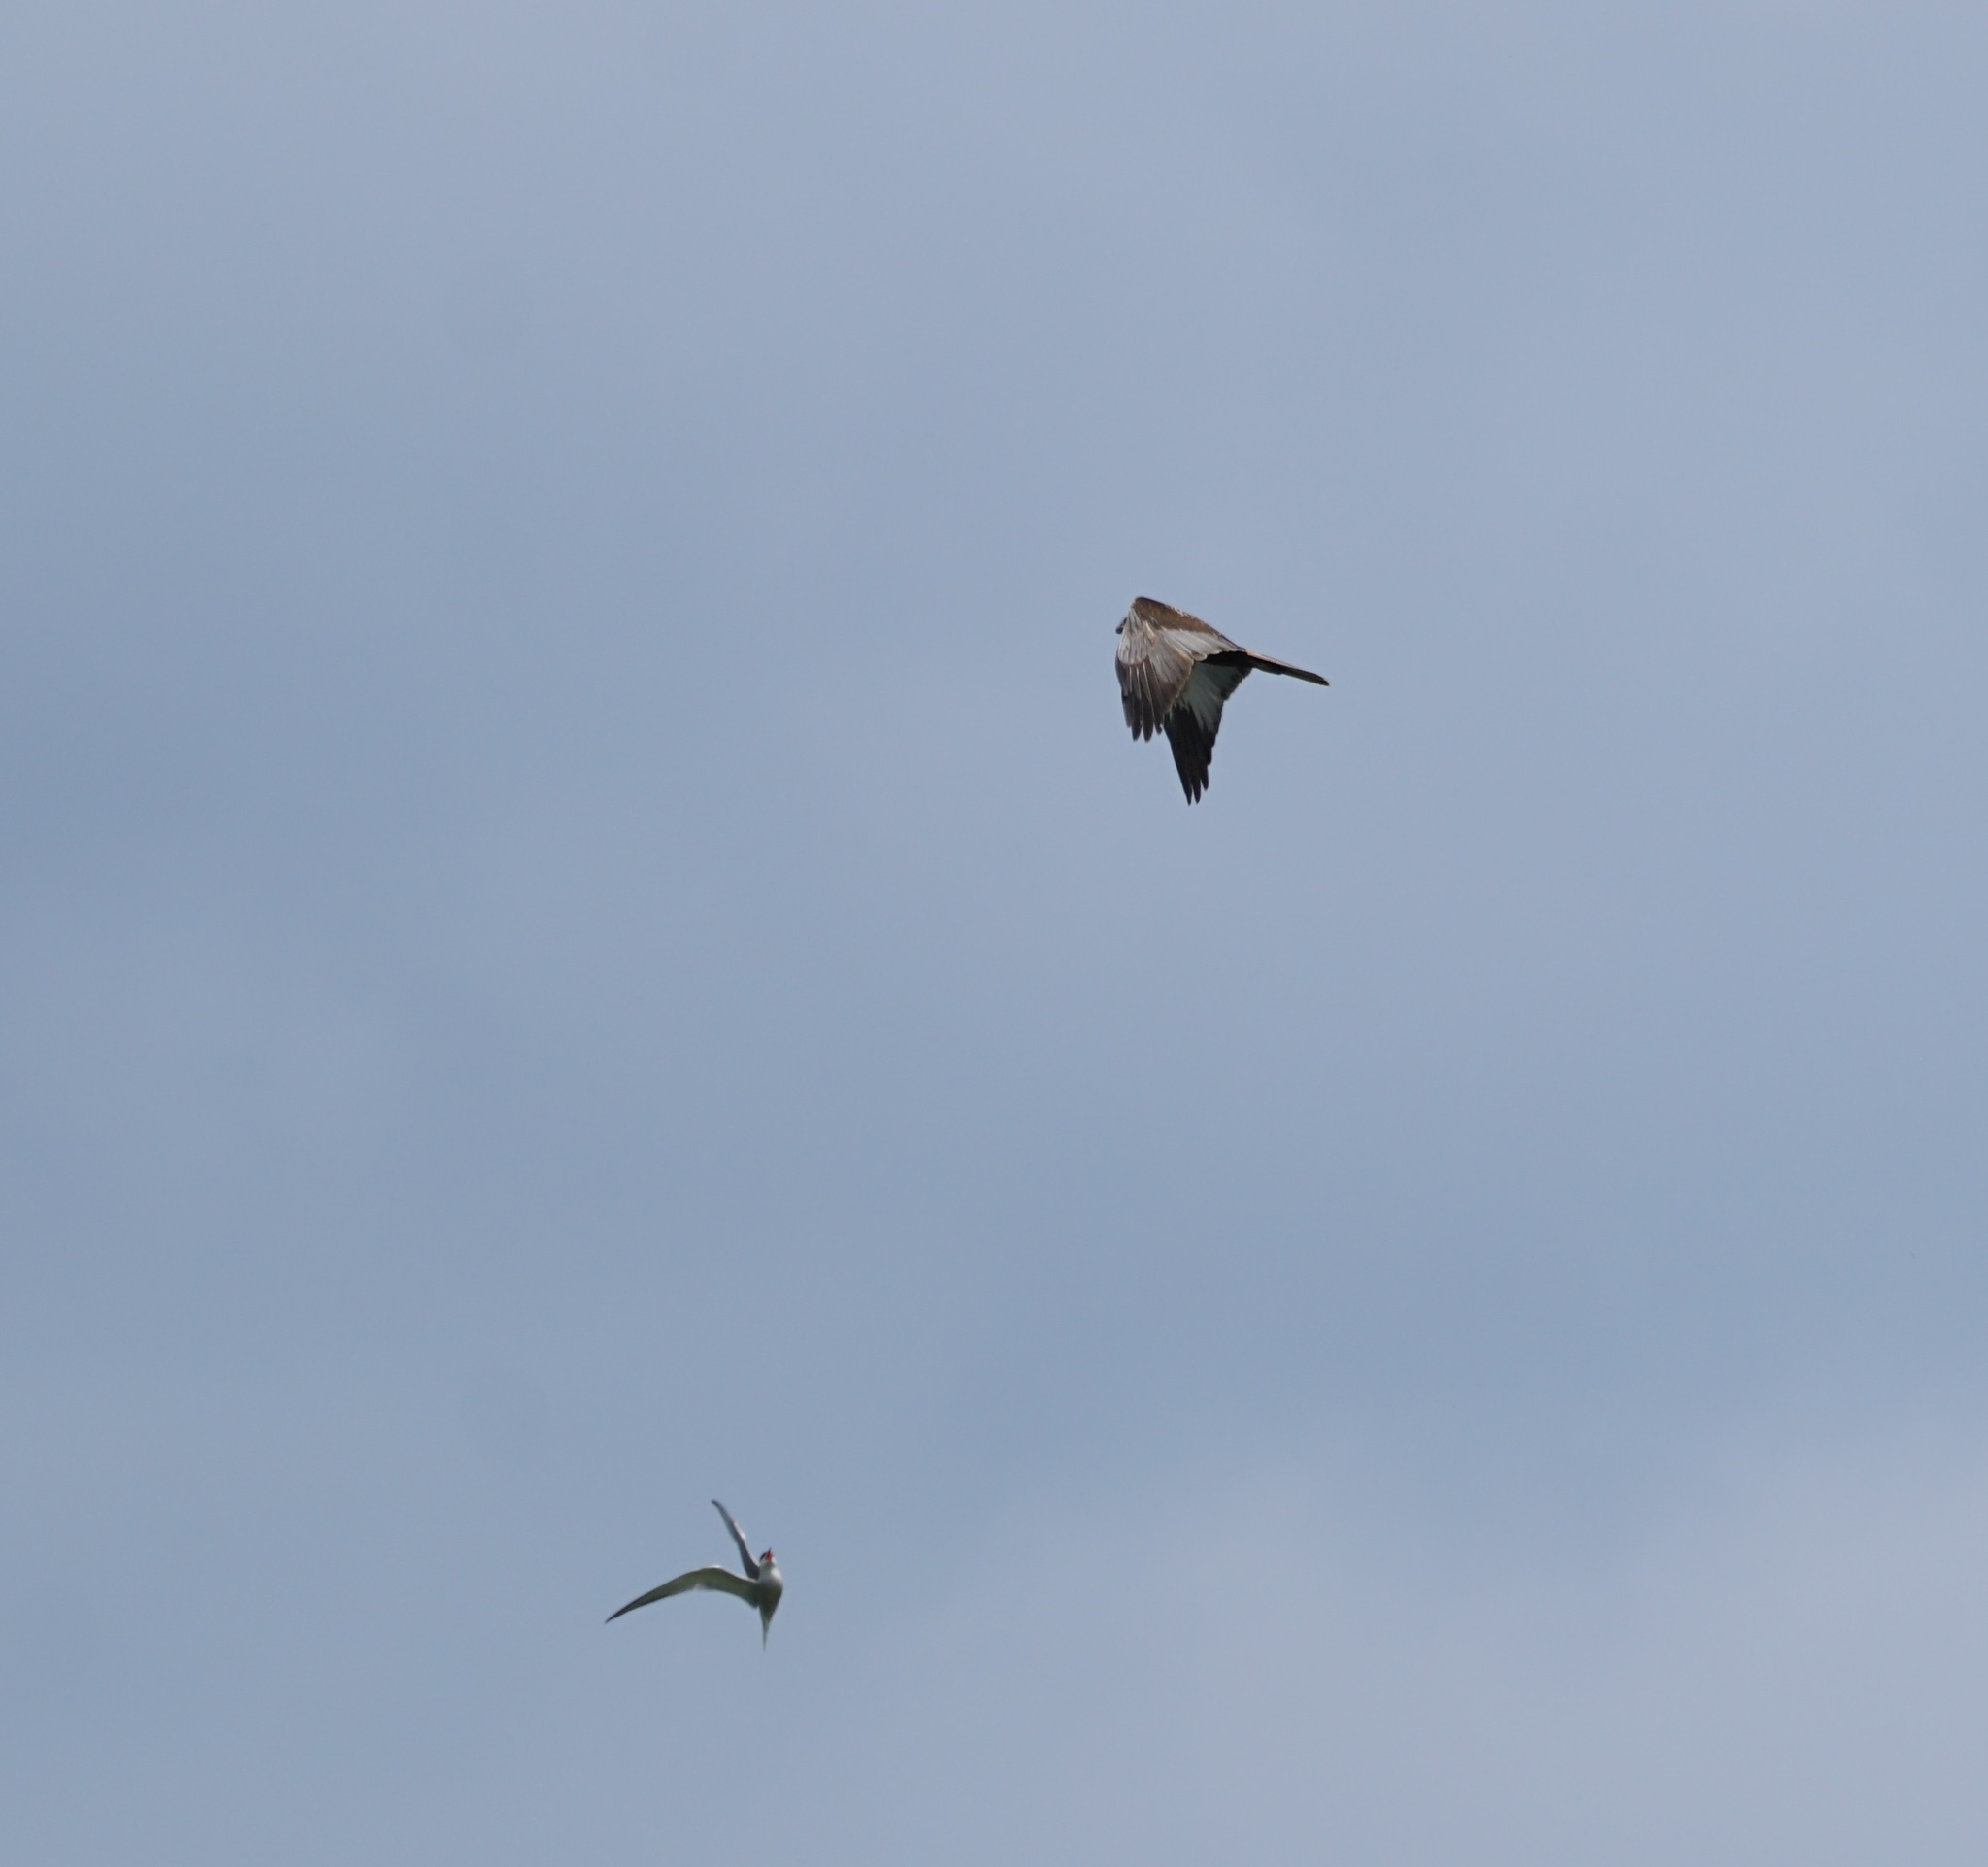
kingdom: Animalia
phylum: Chordata
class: Aves
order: Accipitriformes
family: Accipitridae
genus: Circus
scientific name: Circus aeruginosus
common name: Western marsh harrier
